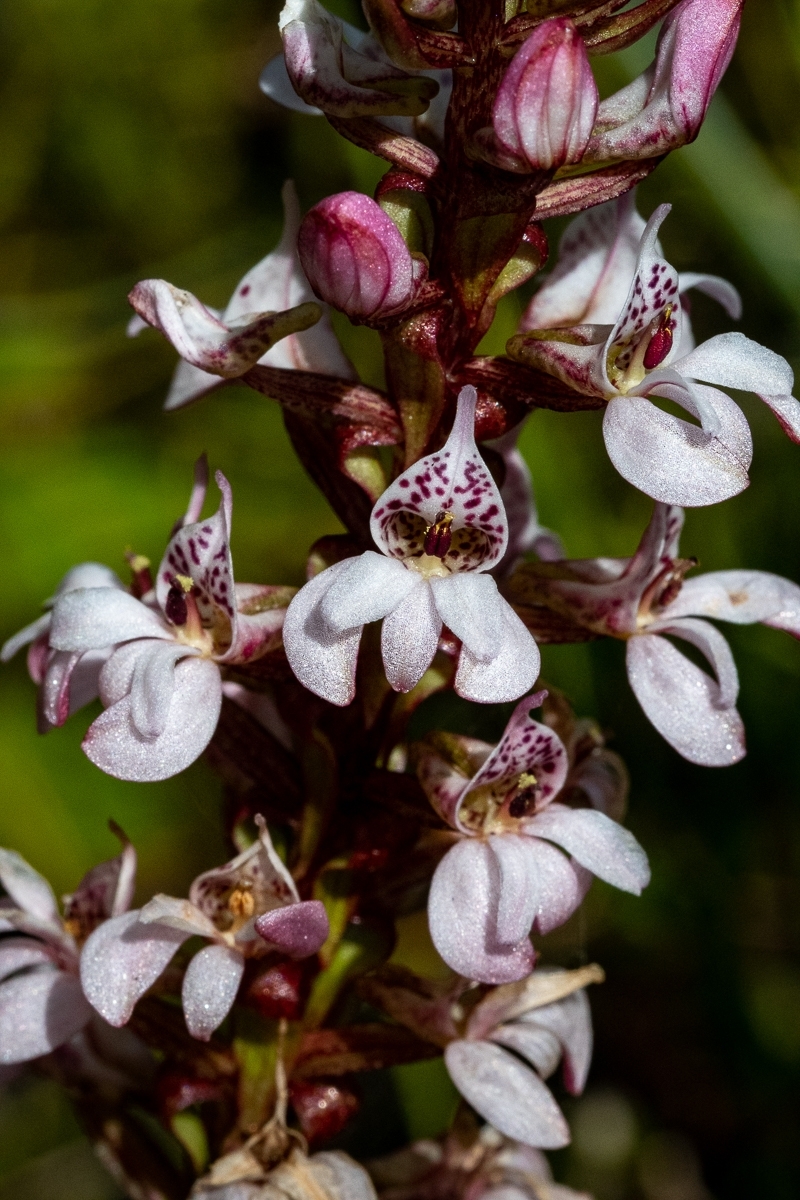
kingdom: Plantae
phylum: Tracheophyta
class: Liliopsida
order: Asparagales
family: Orchidaceae
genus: Satyrium
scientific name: Satyrium rhynchanthum
